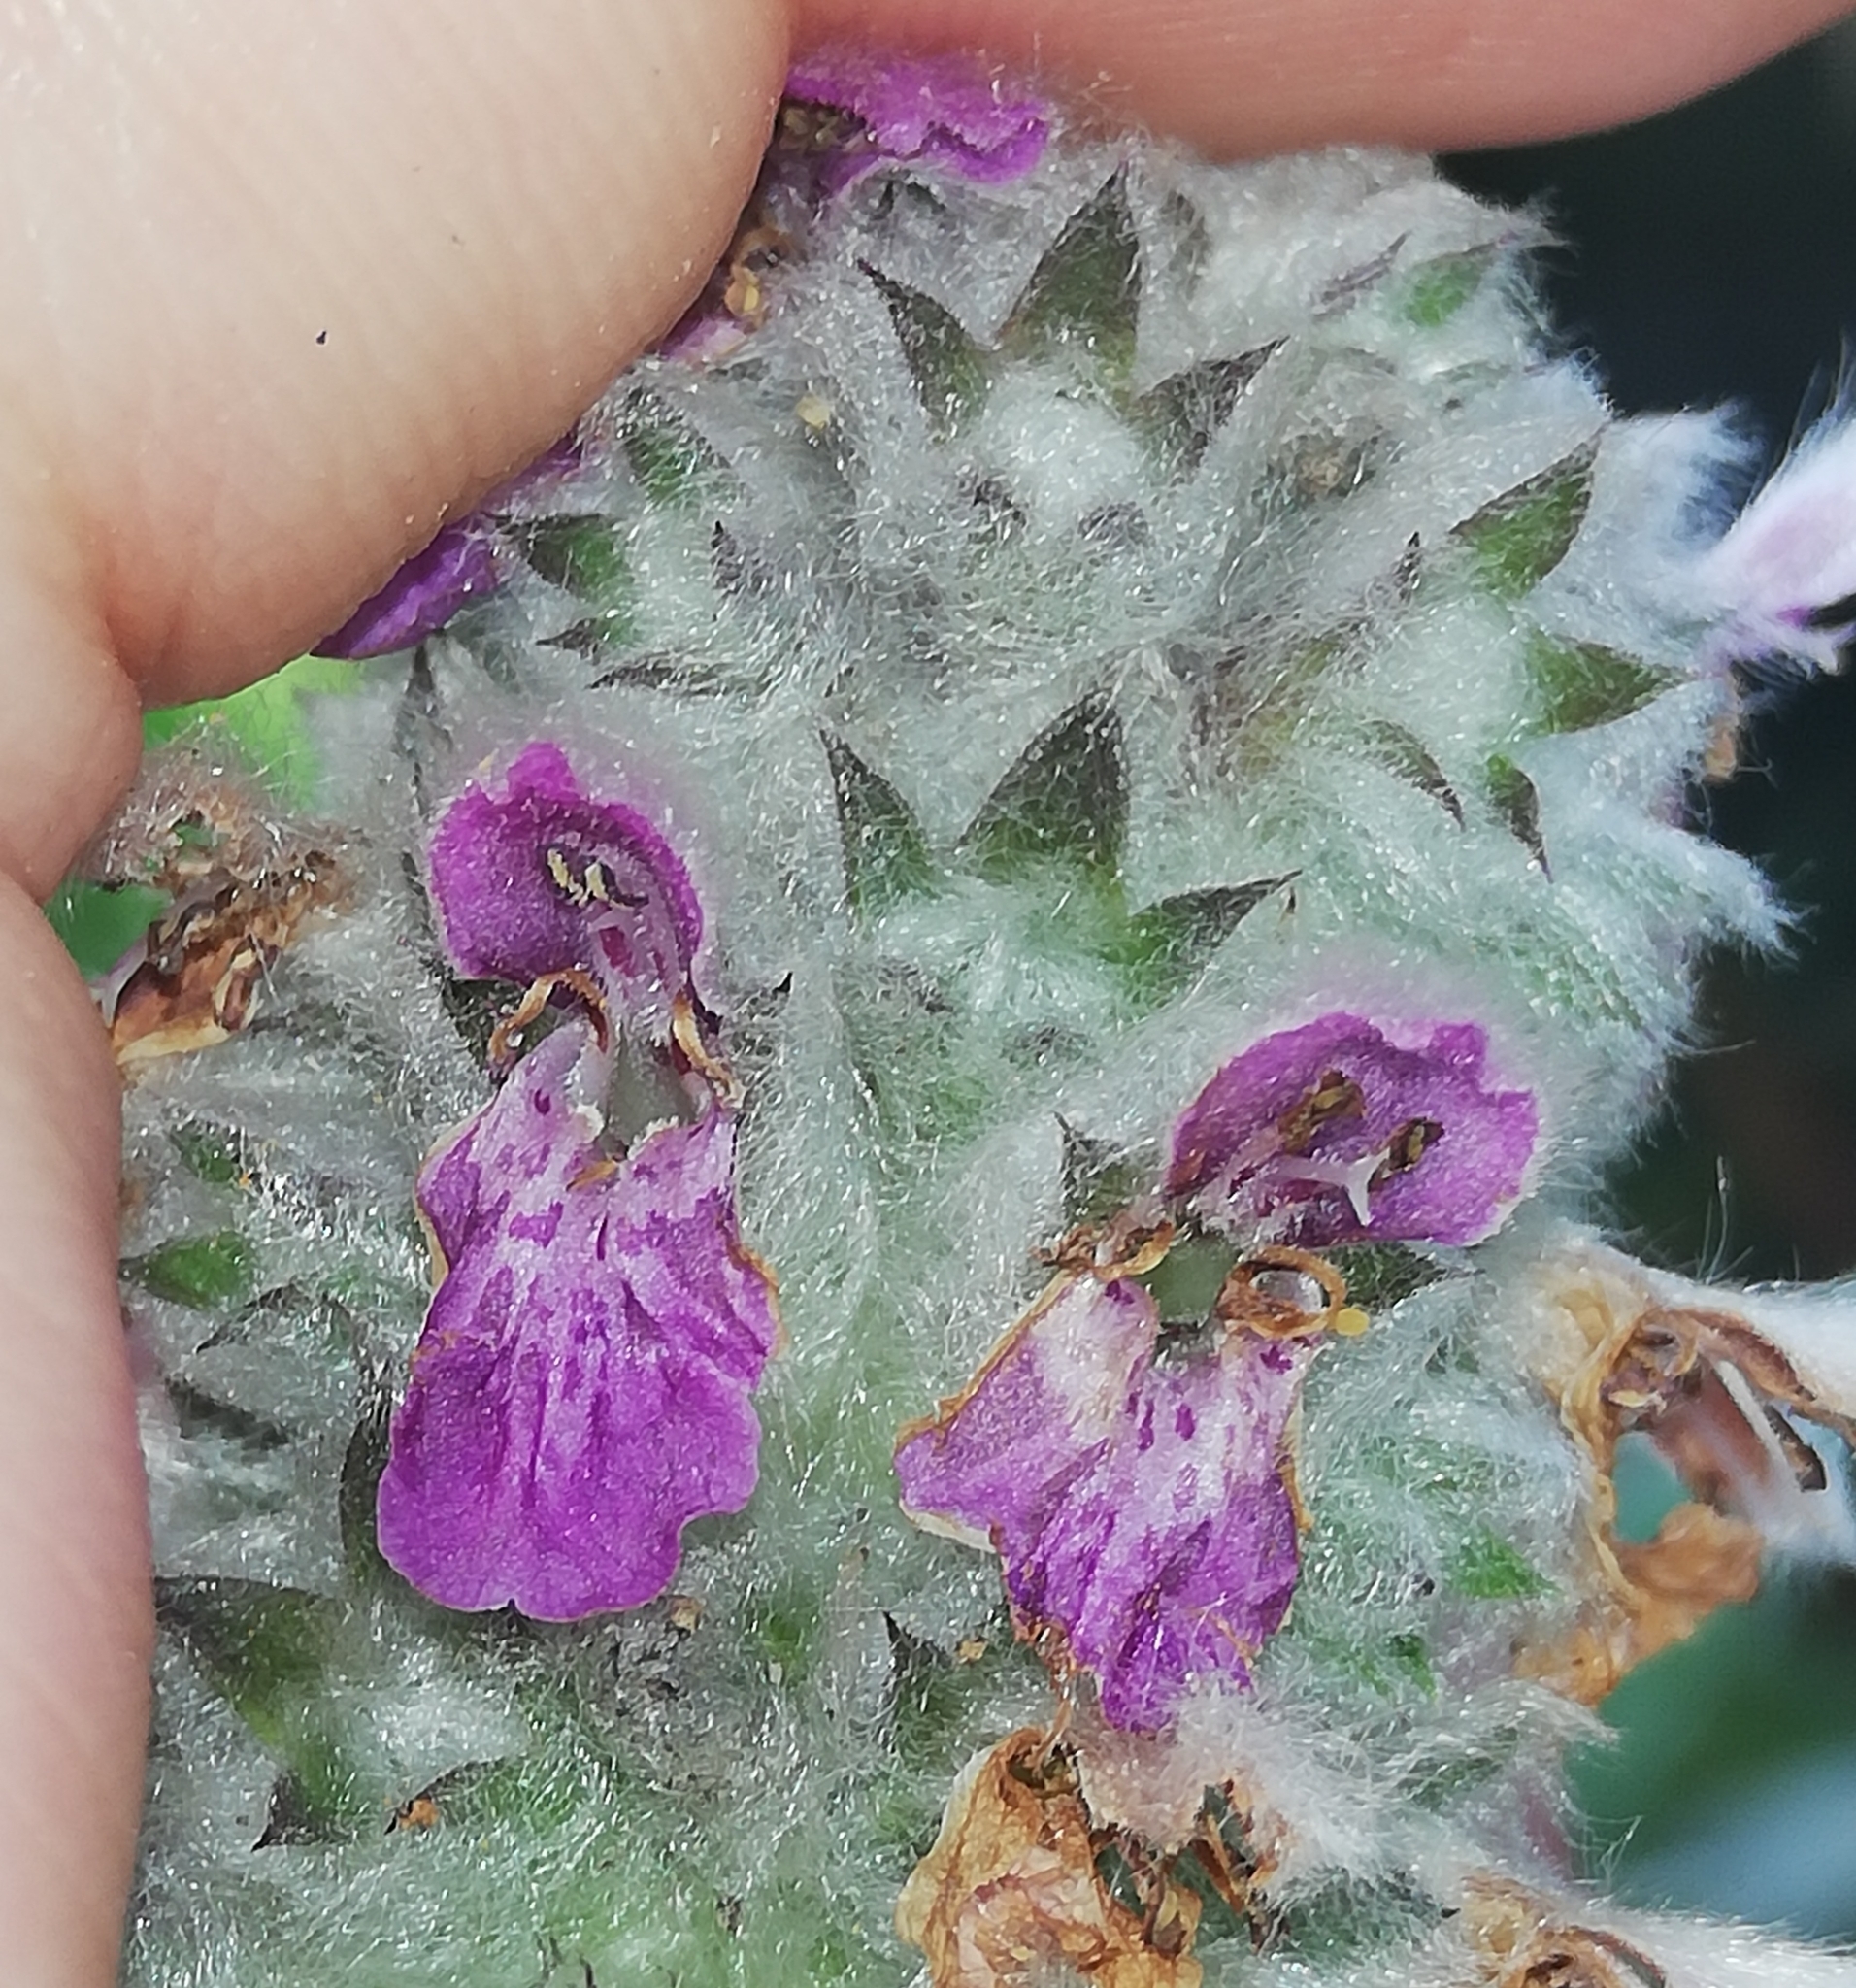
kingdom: Plantae
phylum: Tracheophyta
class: Magnoliopsida
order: Lamiales
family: Lamiaceae
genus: Stachys
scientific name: Stachys byzantina
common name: Lamb's-ear
